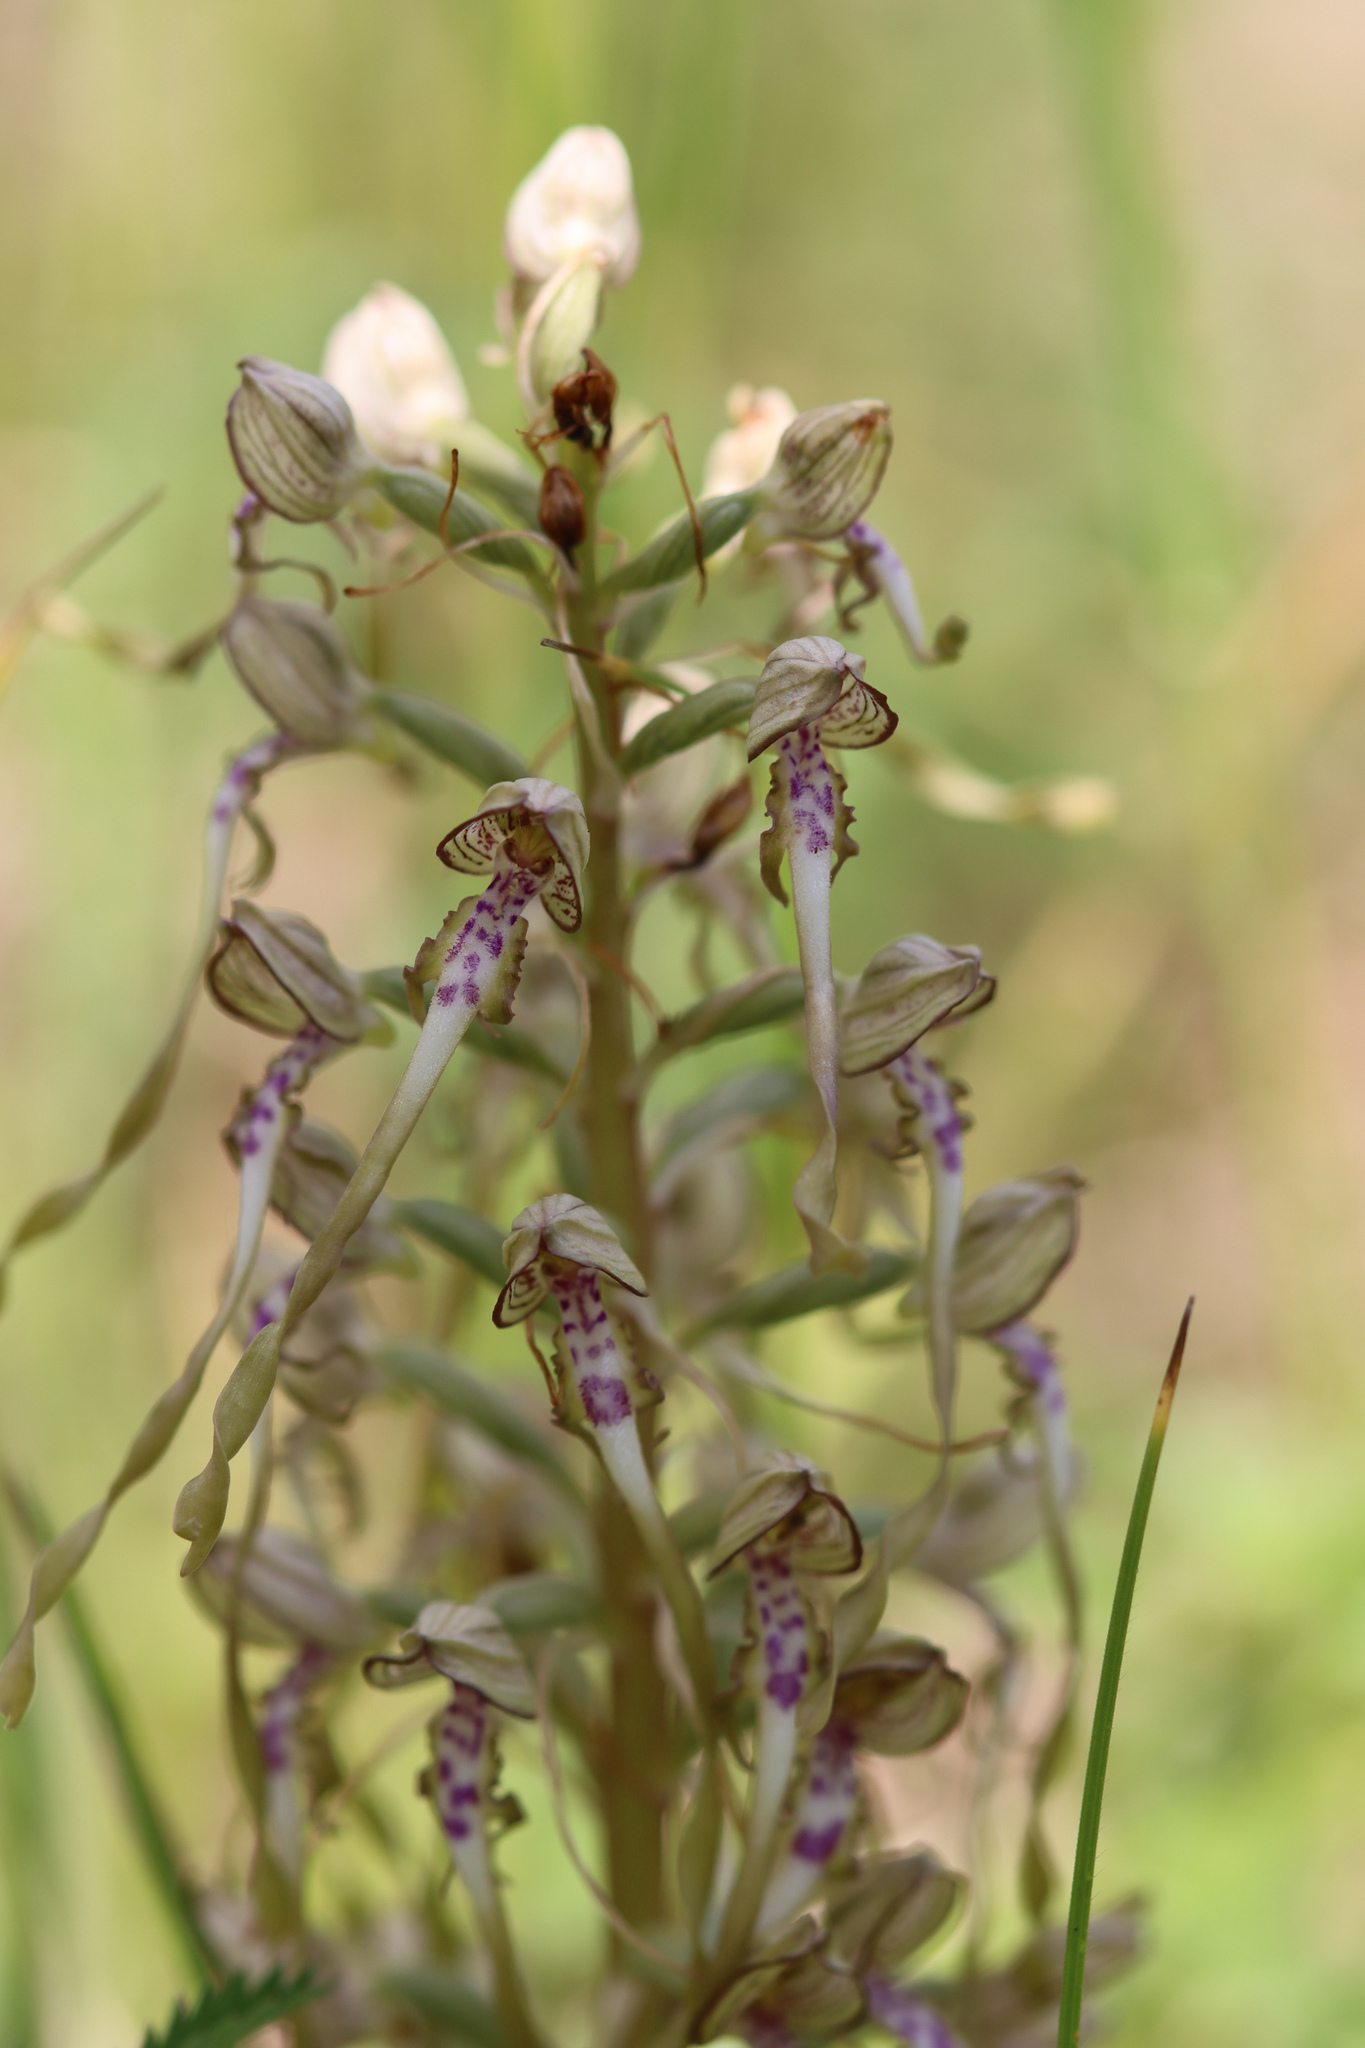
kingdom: Plantae
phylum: Tracheophyta
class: Liliopsida
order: Asparagales
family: Orchidaceae
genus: Himantoglossum
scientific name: Himantoglossum hircinum
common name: Lizard orchid
